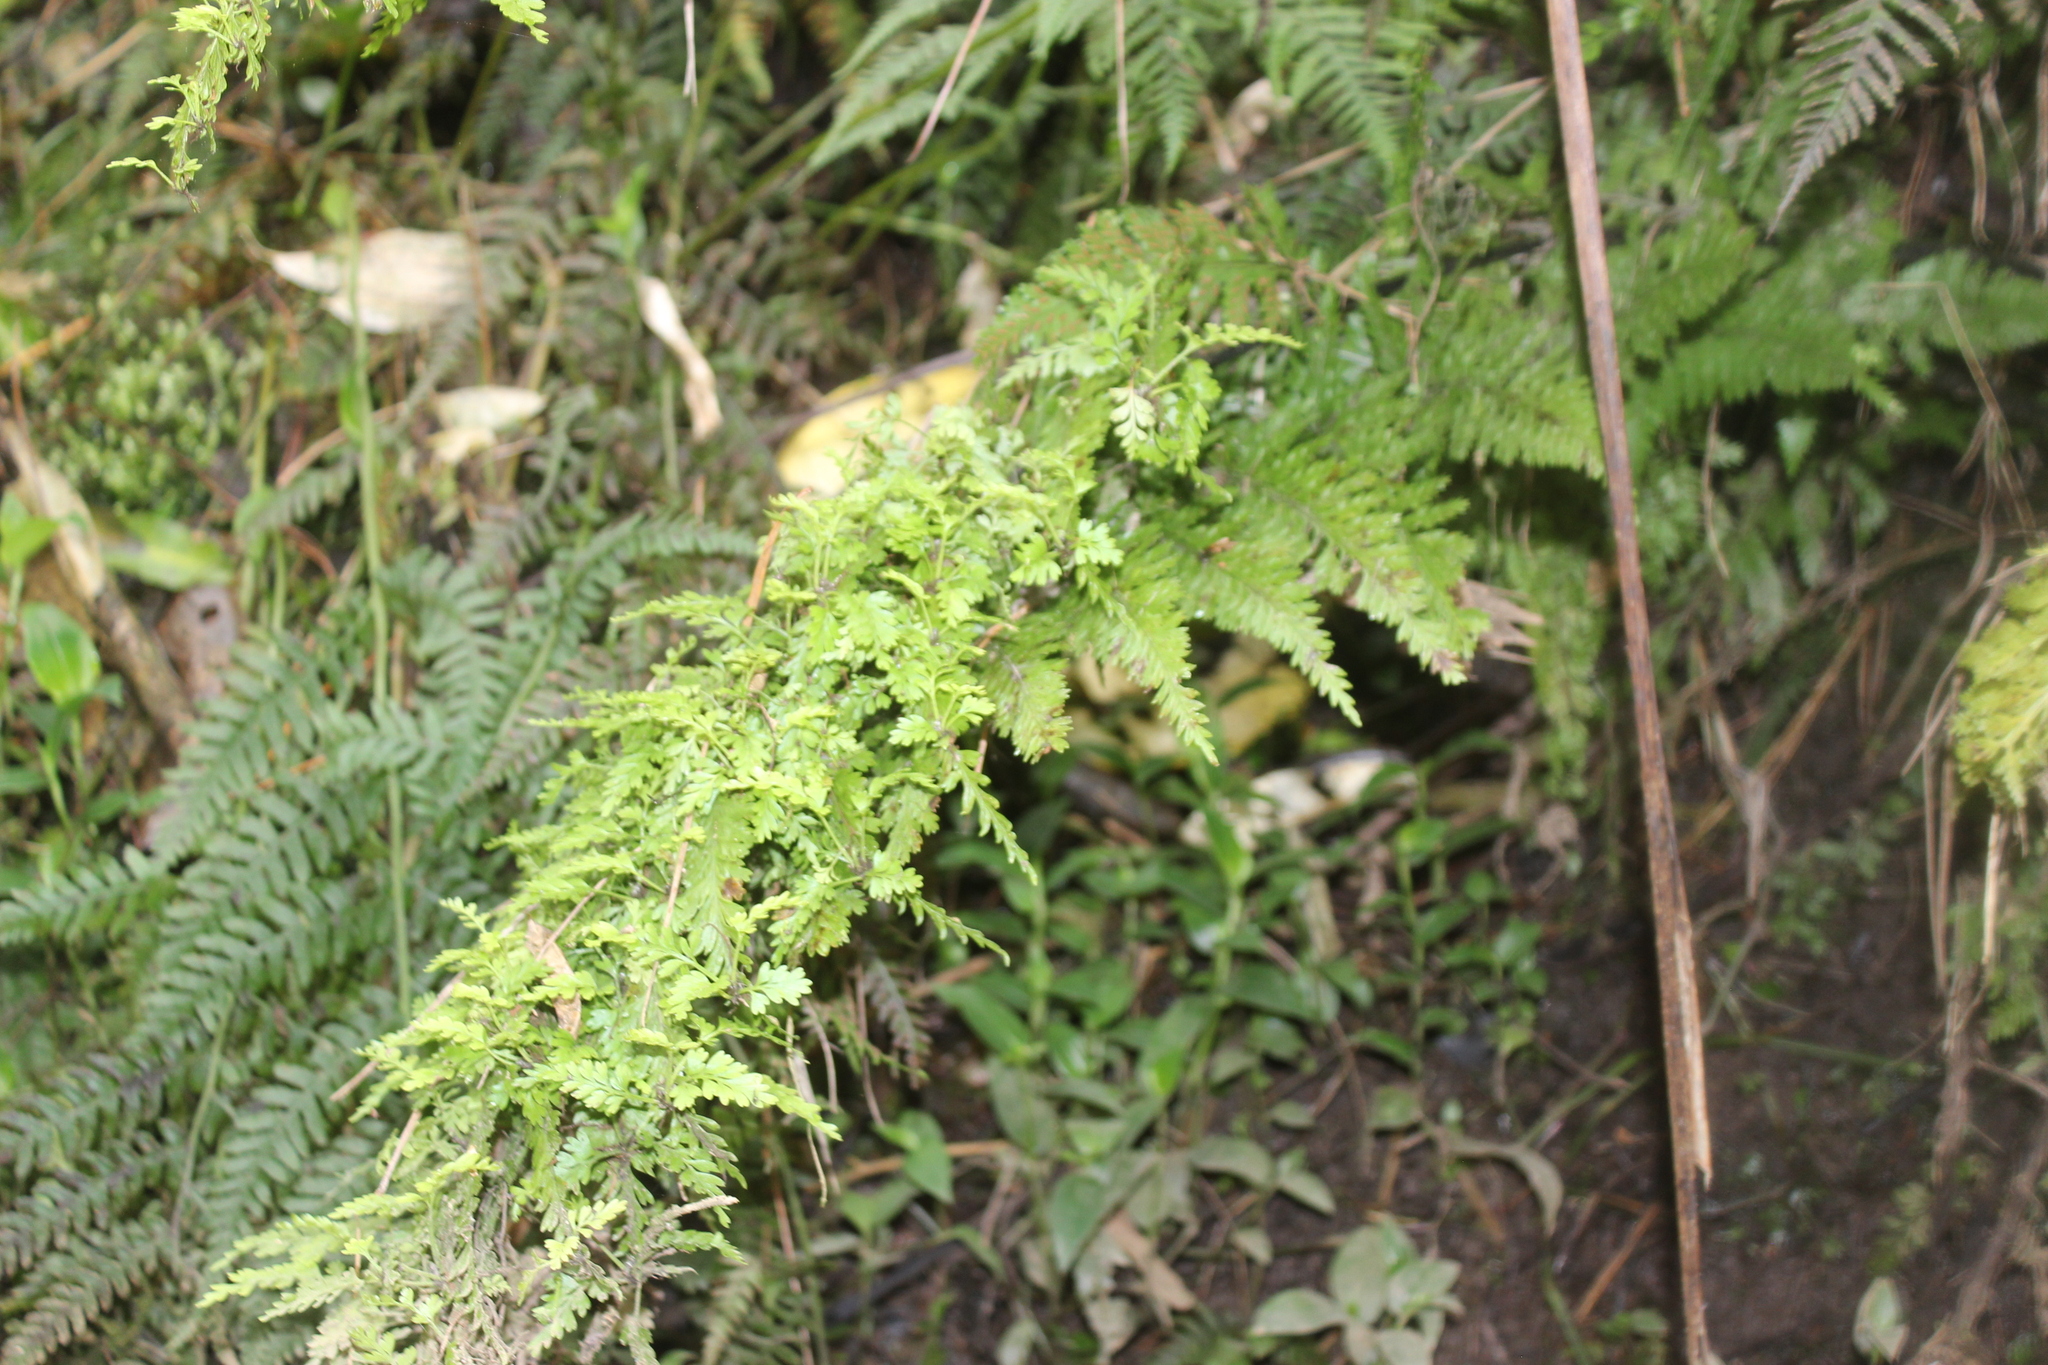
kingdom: Plantae
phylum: Tracheophyta
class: Polypodiopsida
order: Polypodiales
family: Aspleniaceae
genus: Asplenium
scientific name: Asplenium bulbiferum
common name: Mother fern
